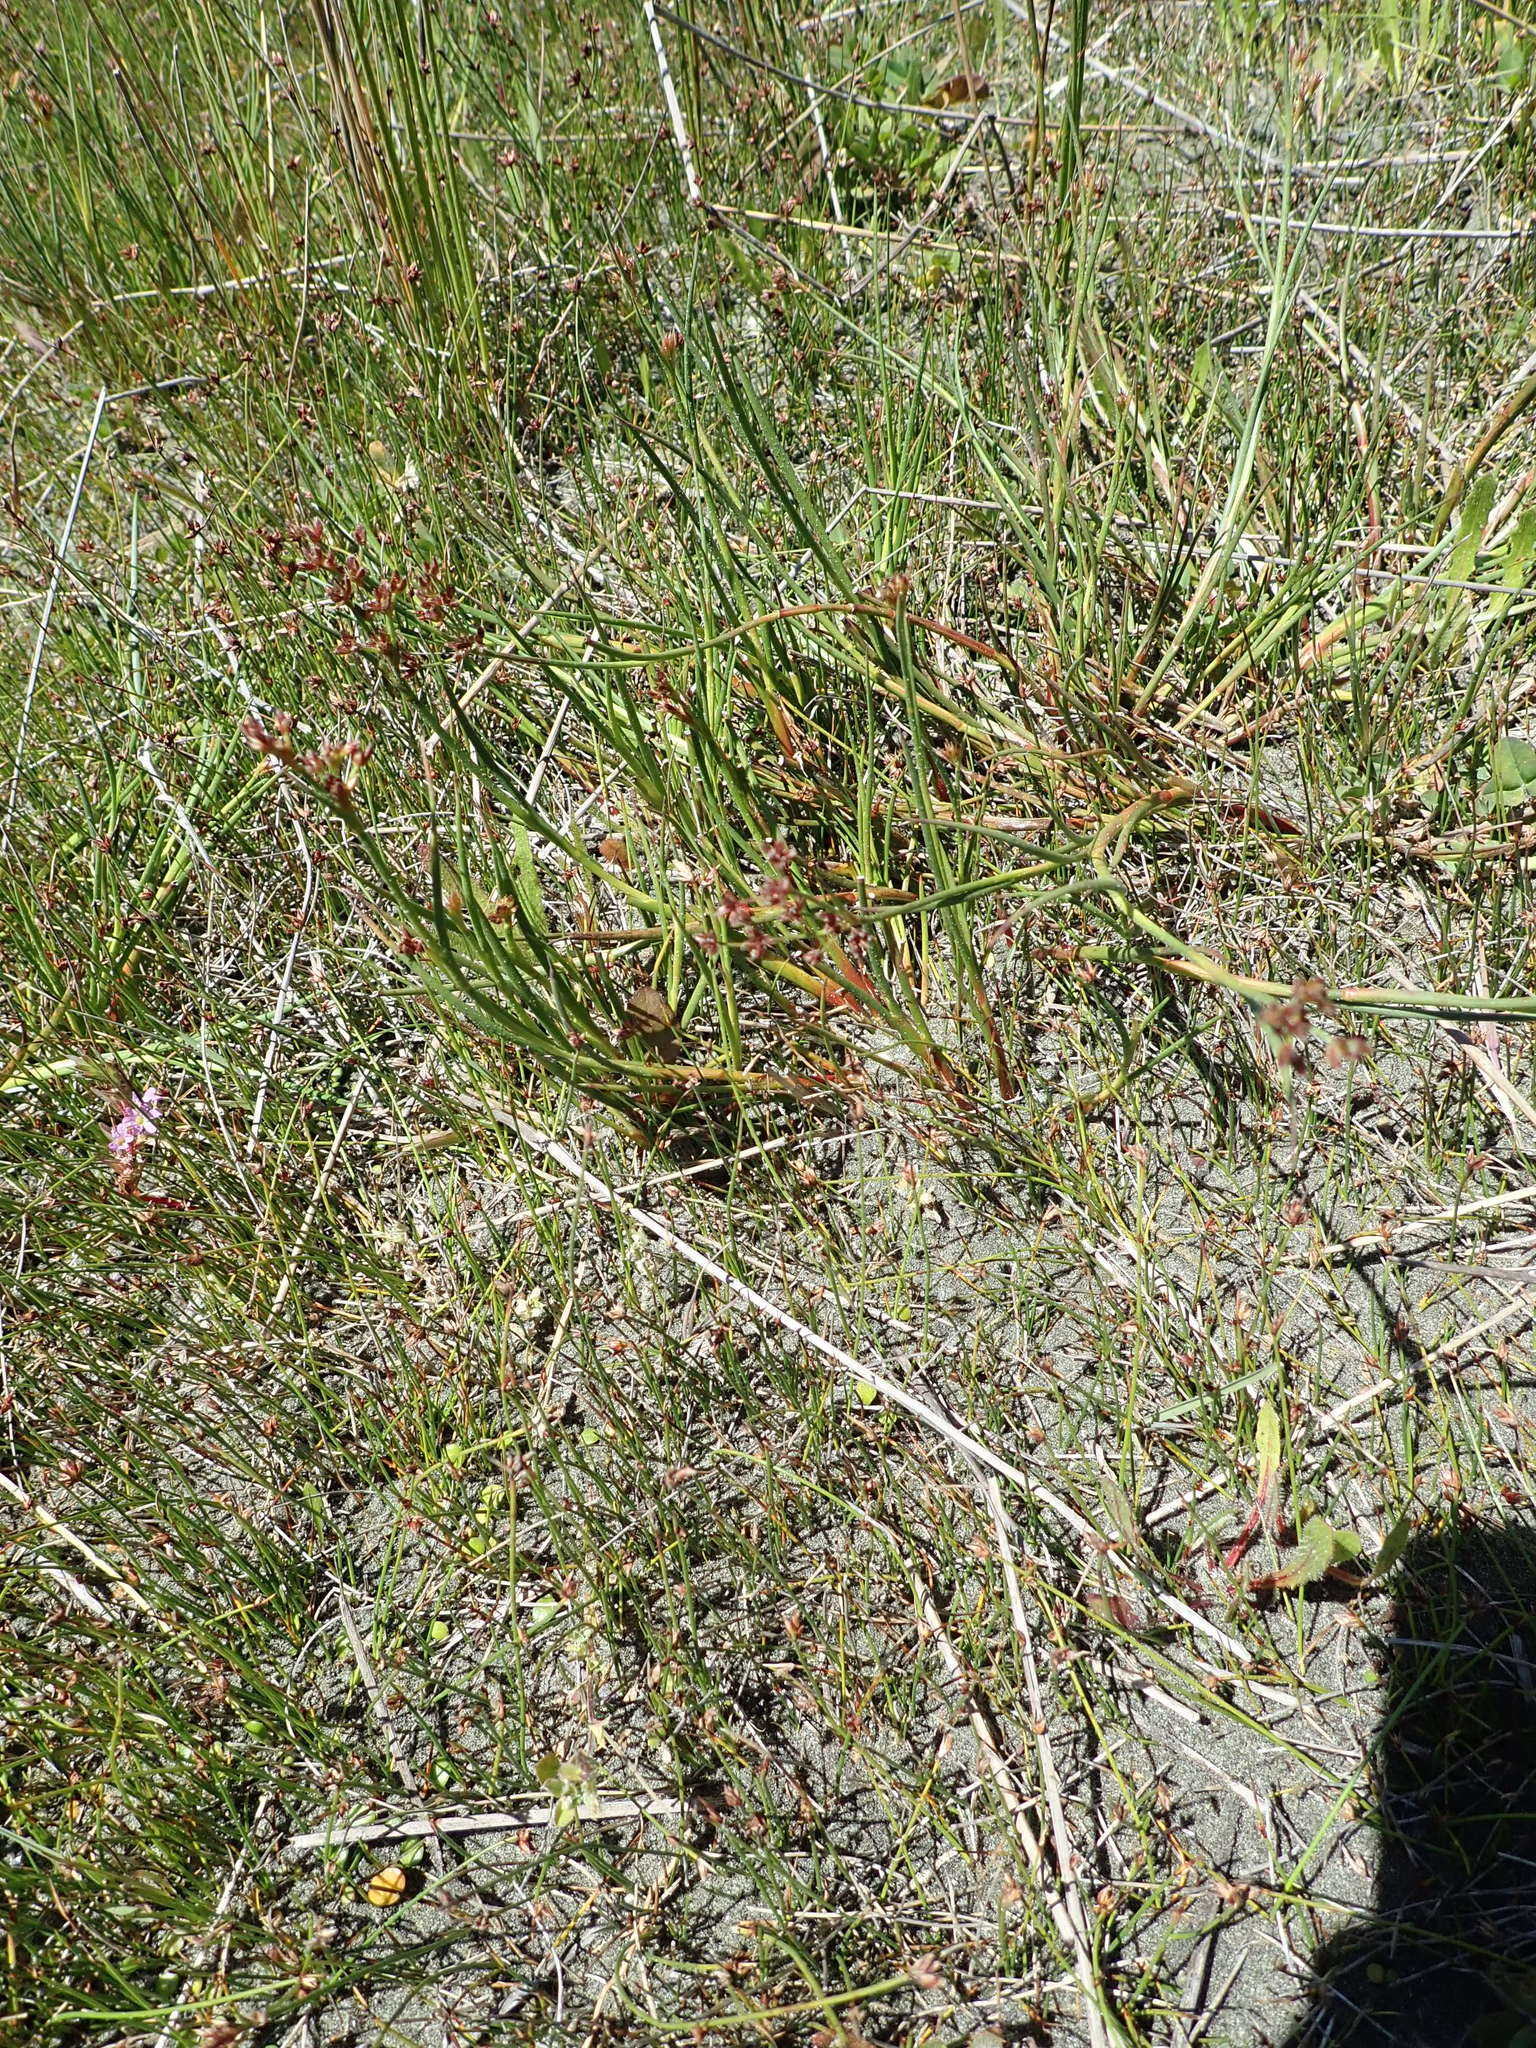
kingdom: Plantae
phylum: Tracheophyta
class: Liliopsida
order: Poales
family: Juncaceae
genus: Juncus
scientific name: Juncus articulatus
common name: Jointed rush
